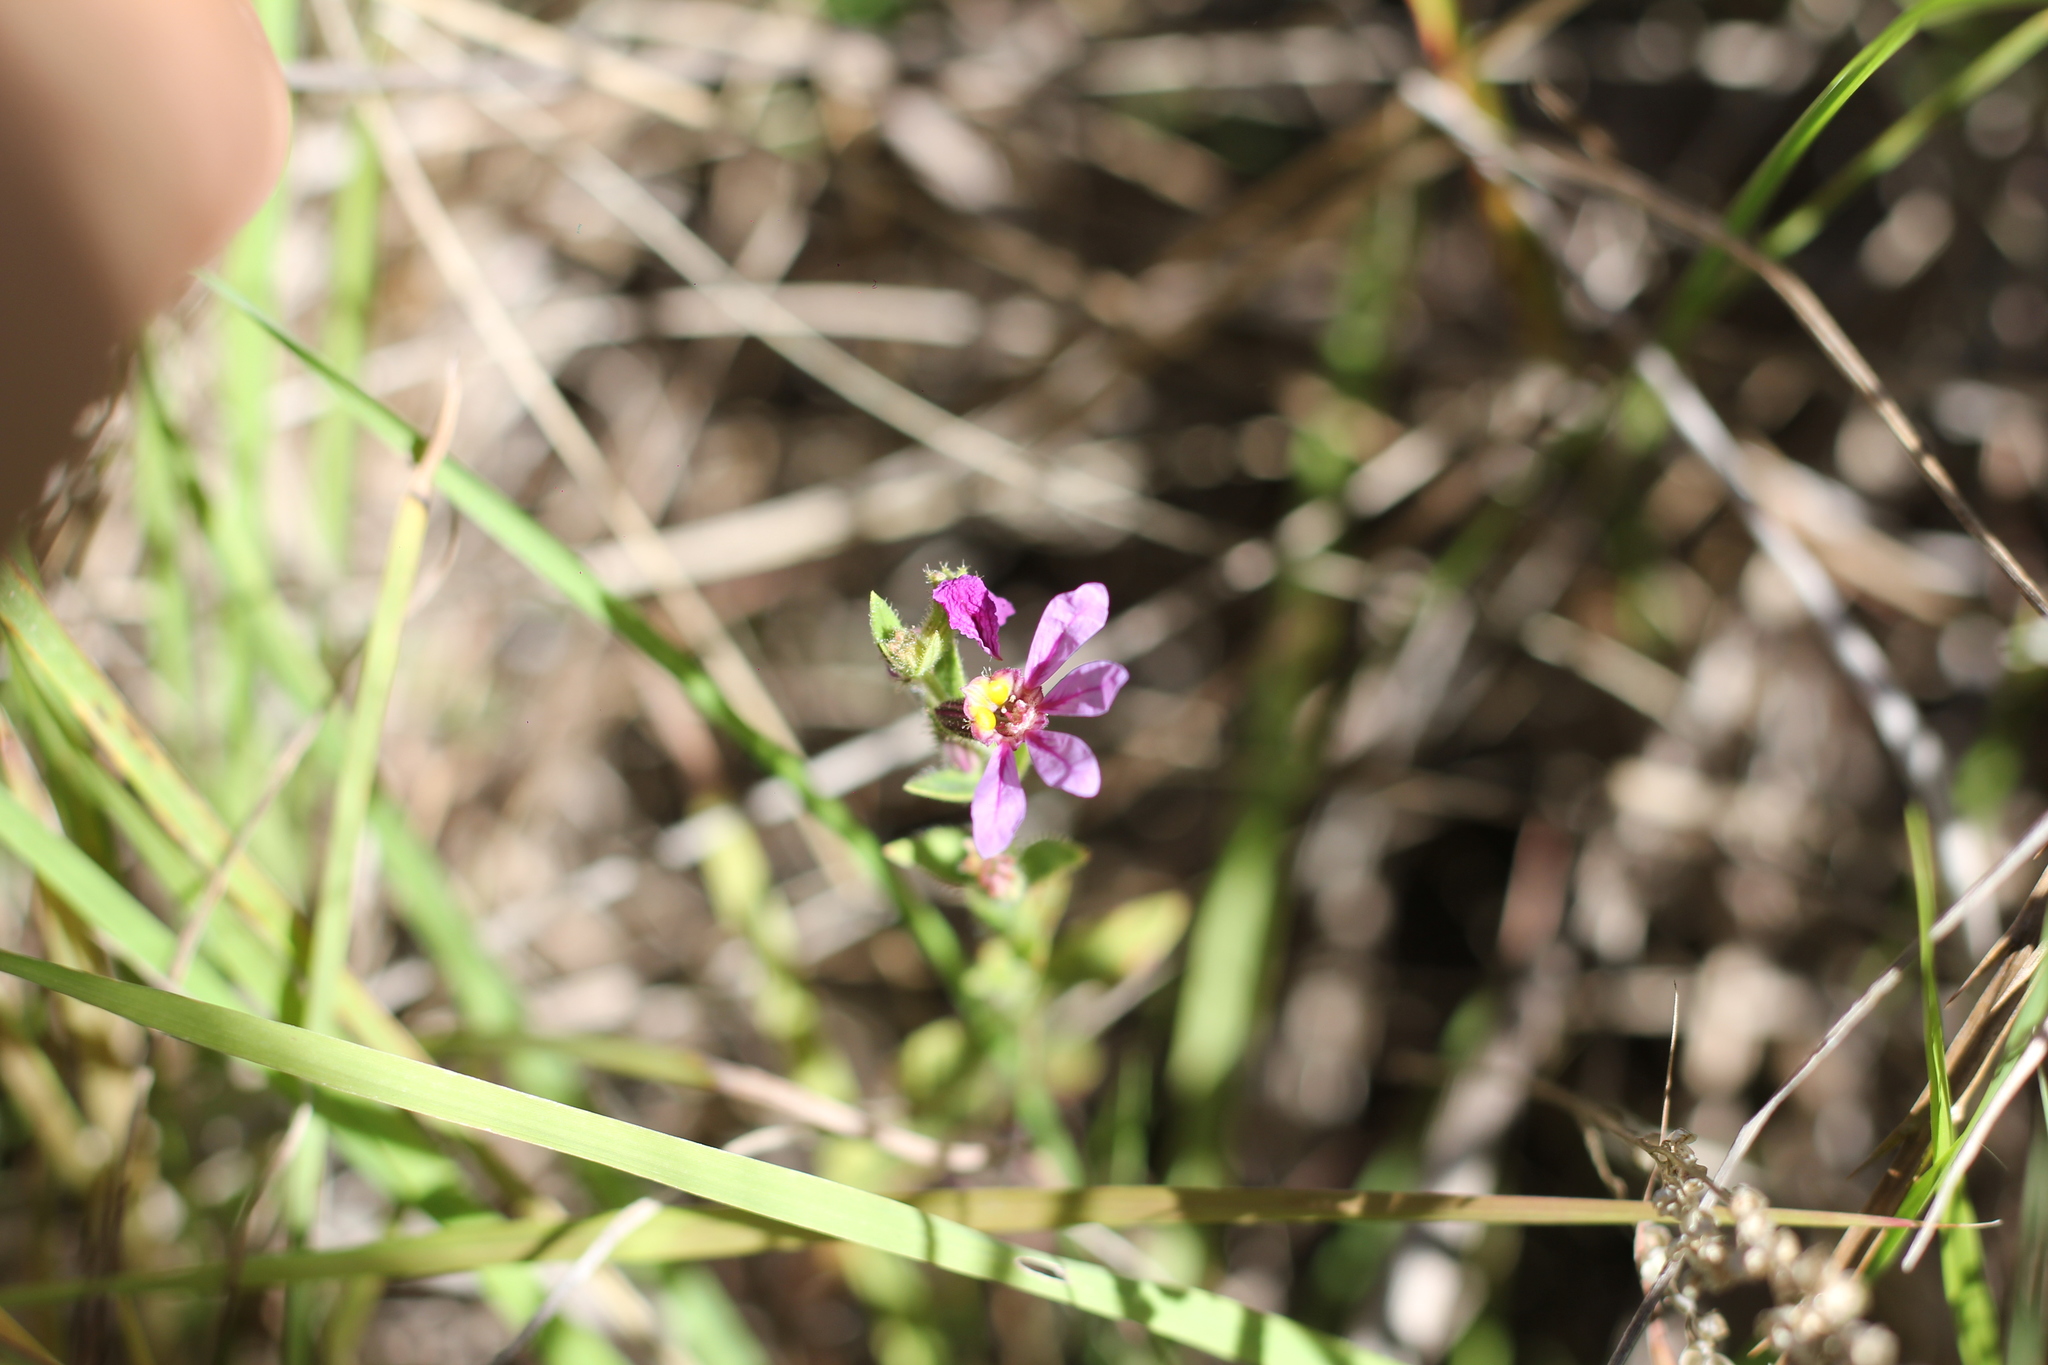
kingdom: Plantae
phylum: Tracheophyta
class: Magnoliopsida
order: Myrtales
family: Lythraceae
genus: Cuphea
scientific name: Cuphea glutinosa
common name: Sticky waxweed
